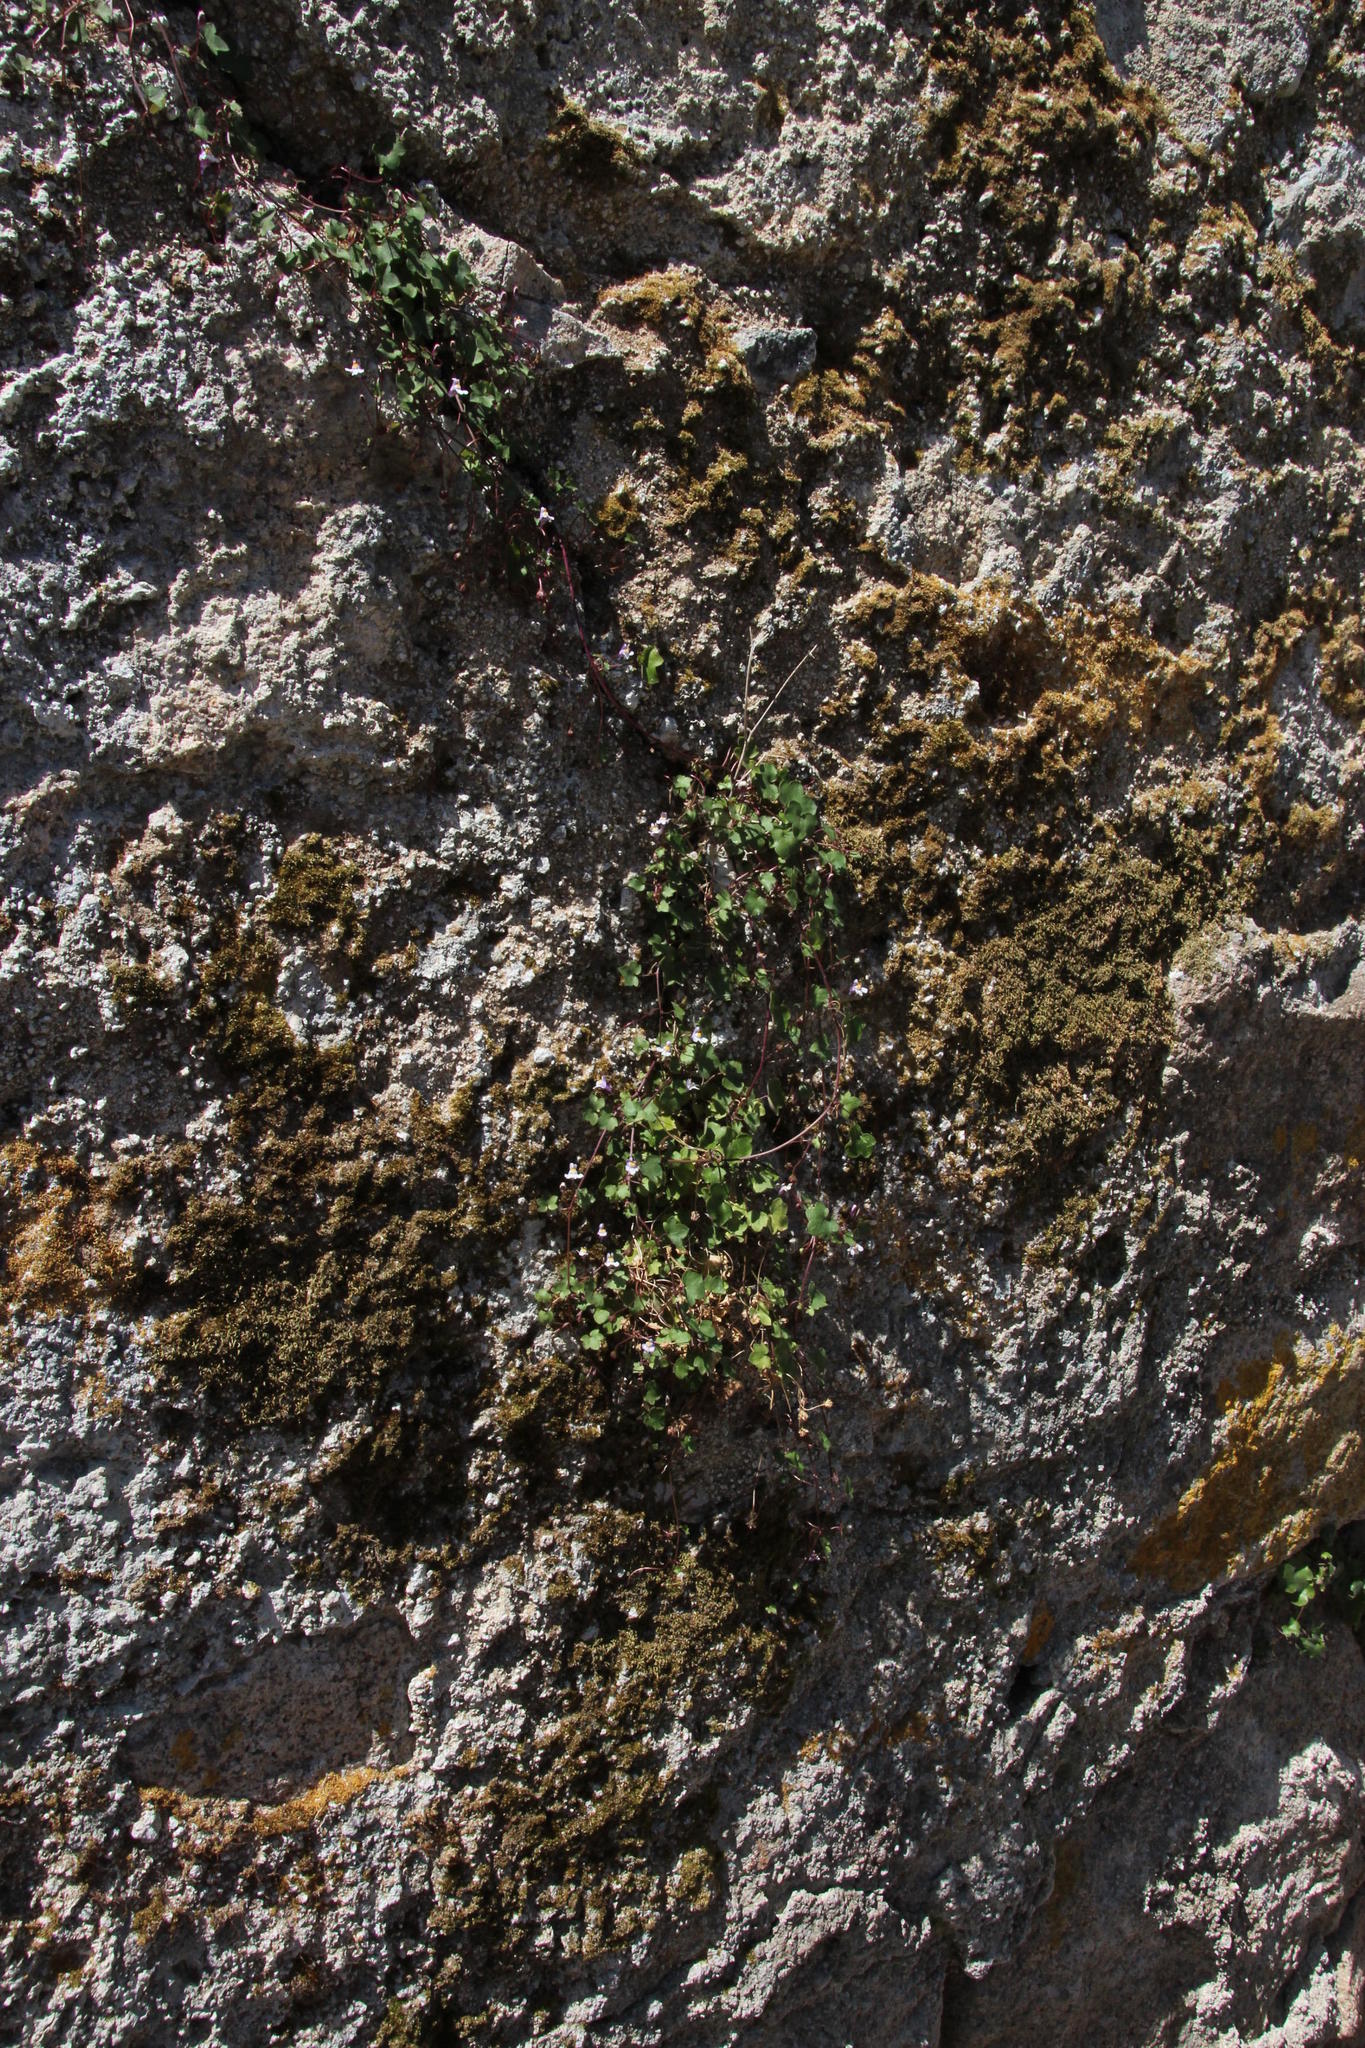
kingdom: Plantae
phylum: Tracheophyta
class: Magnoliopsida
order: Lamiales
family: Plantaginaceae
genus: Cymbalaria
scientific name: Cymbalaria muralis
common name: Ivy-leaved toadflax
